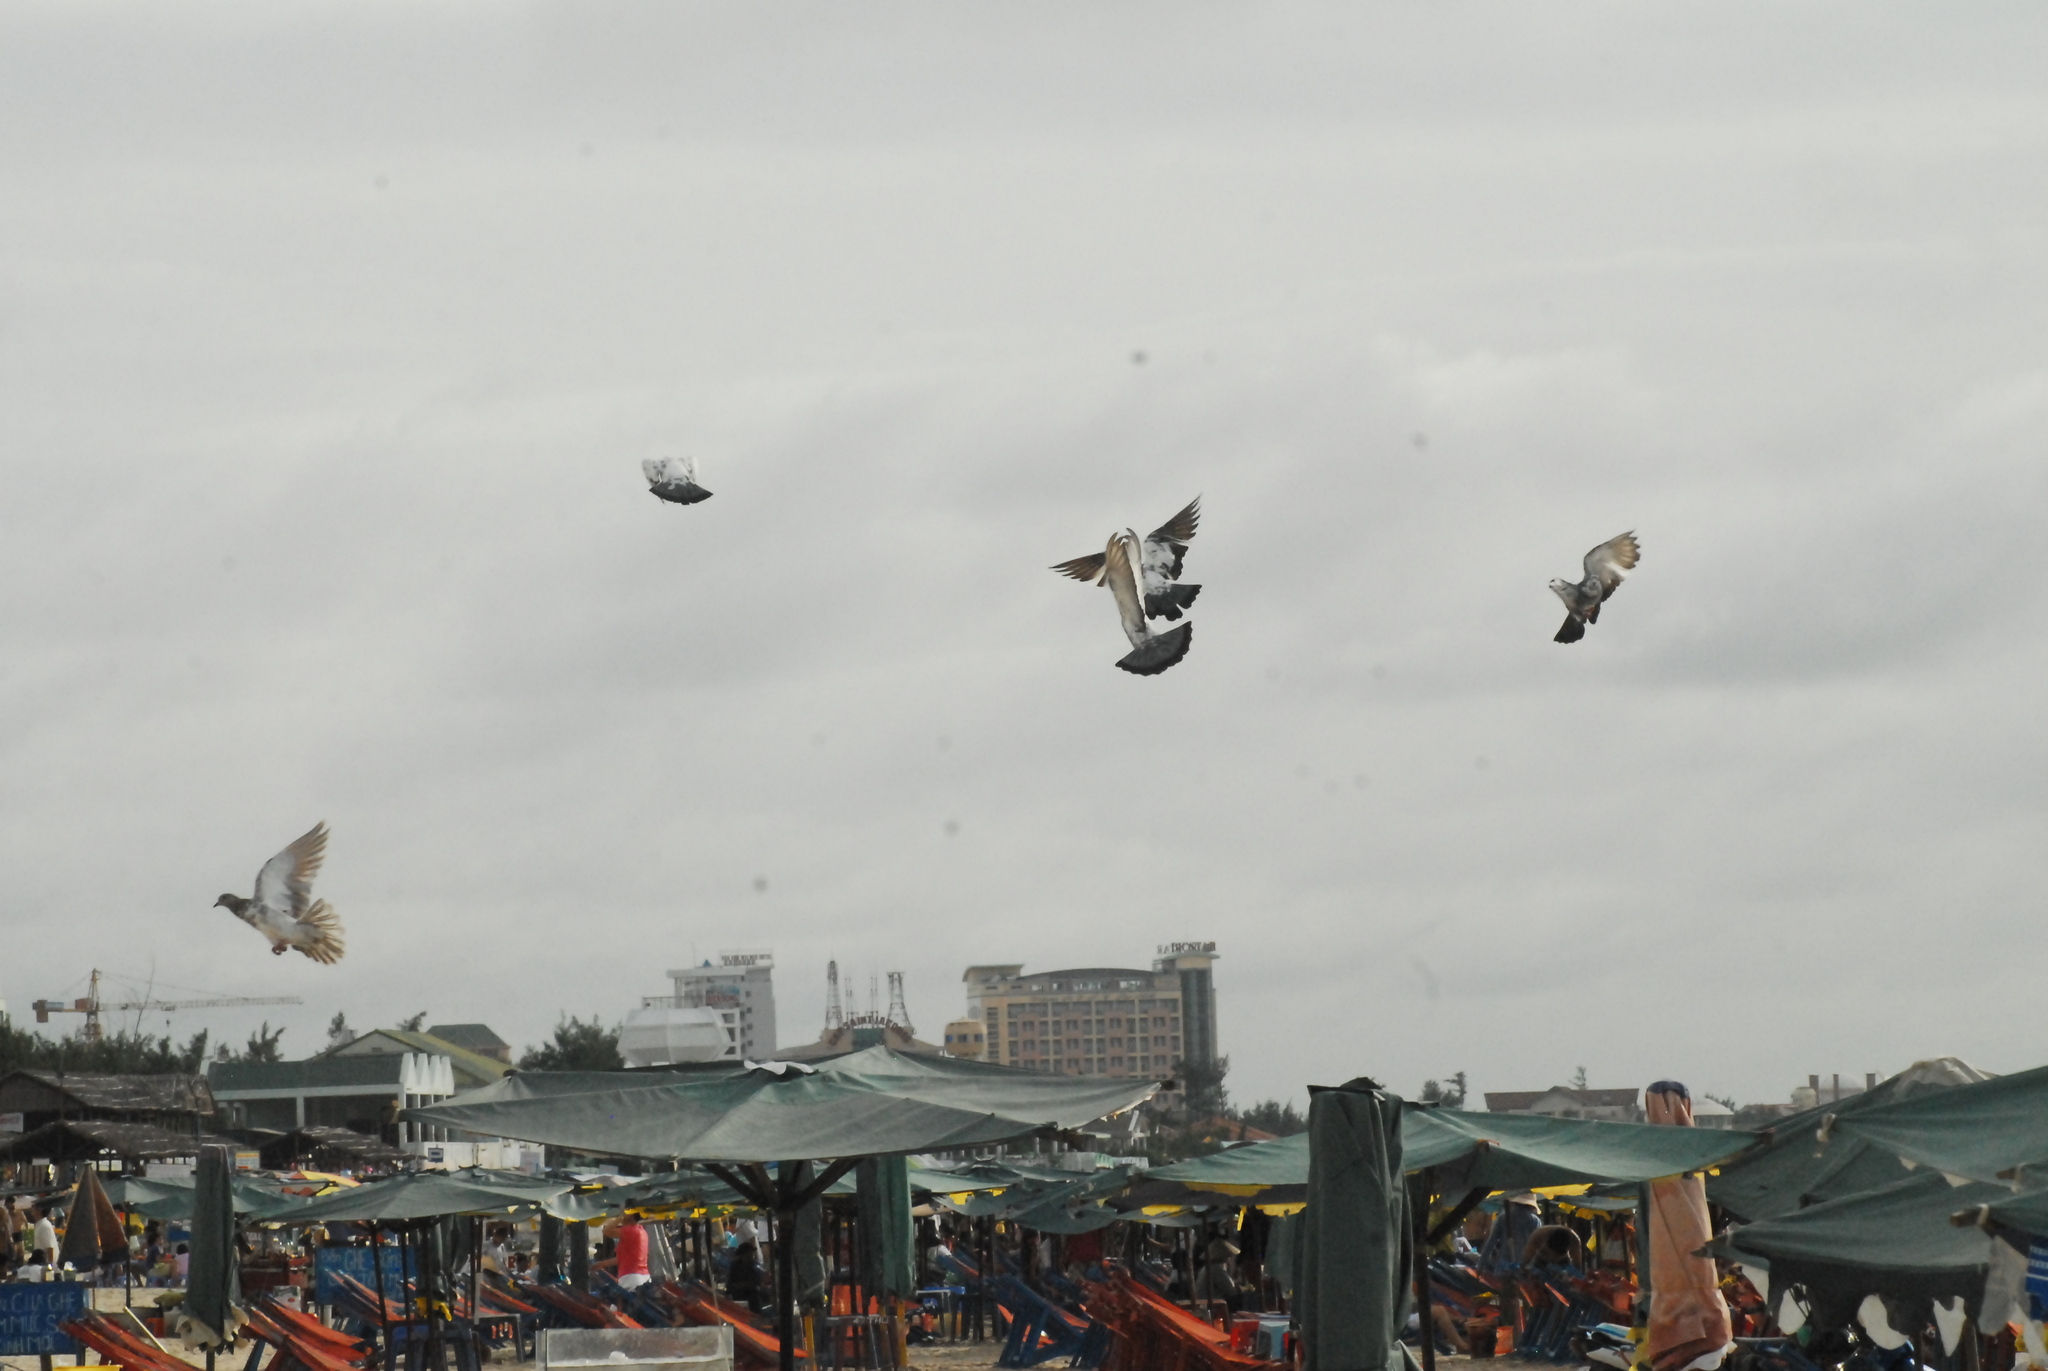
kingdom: Animalia
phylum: Chordata
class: Aves
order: Columbiformes
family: Columbidae
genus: Columba
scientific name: Columba livia
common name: Rock pigeon
